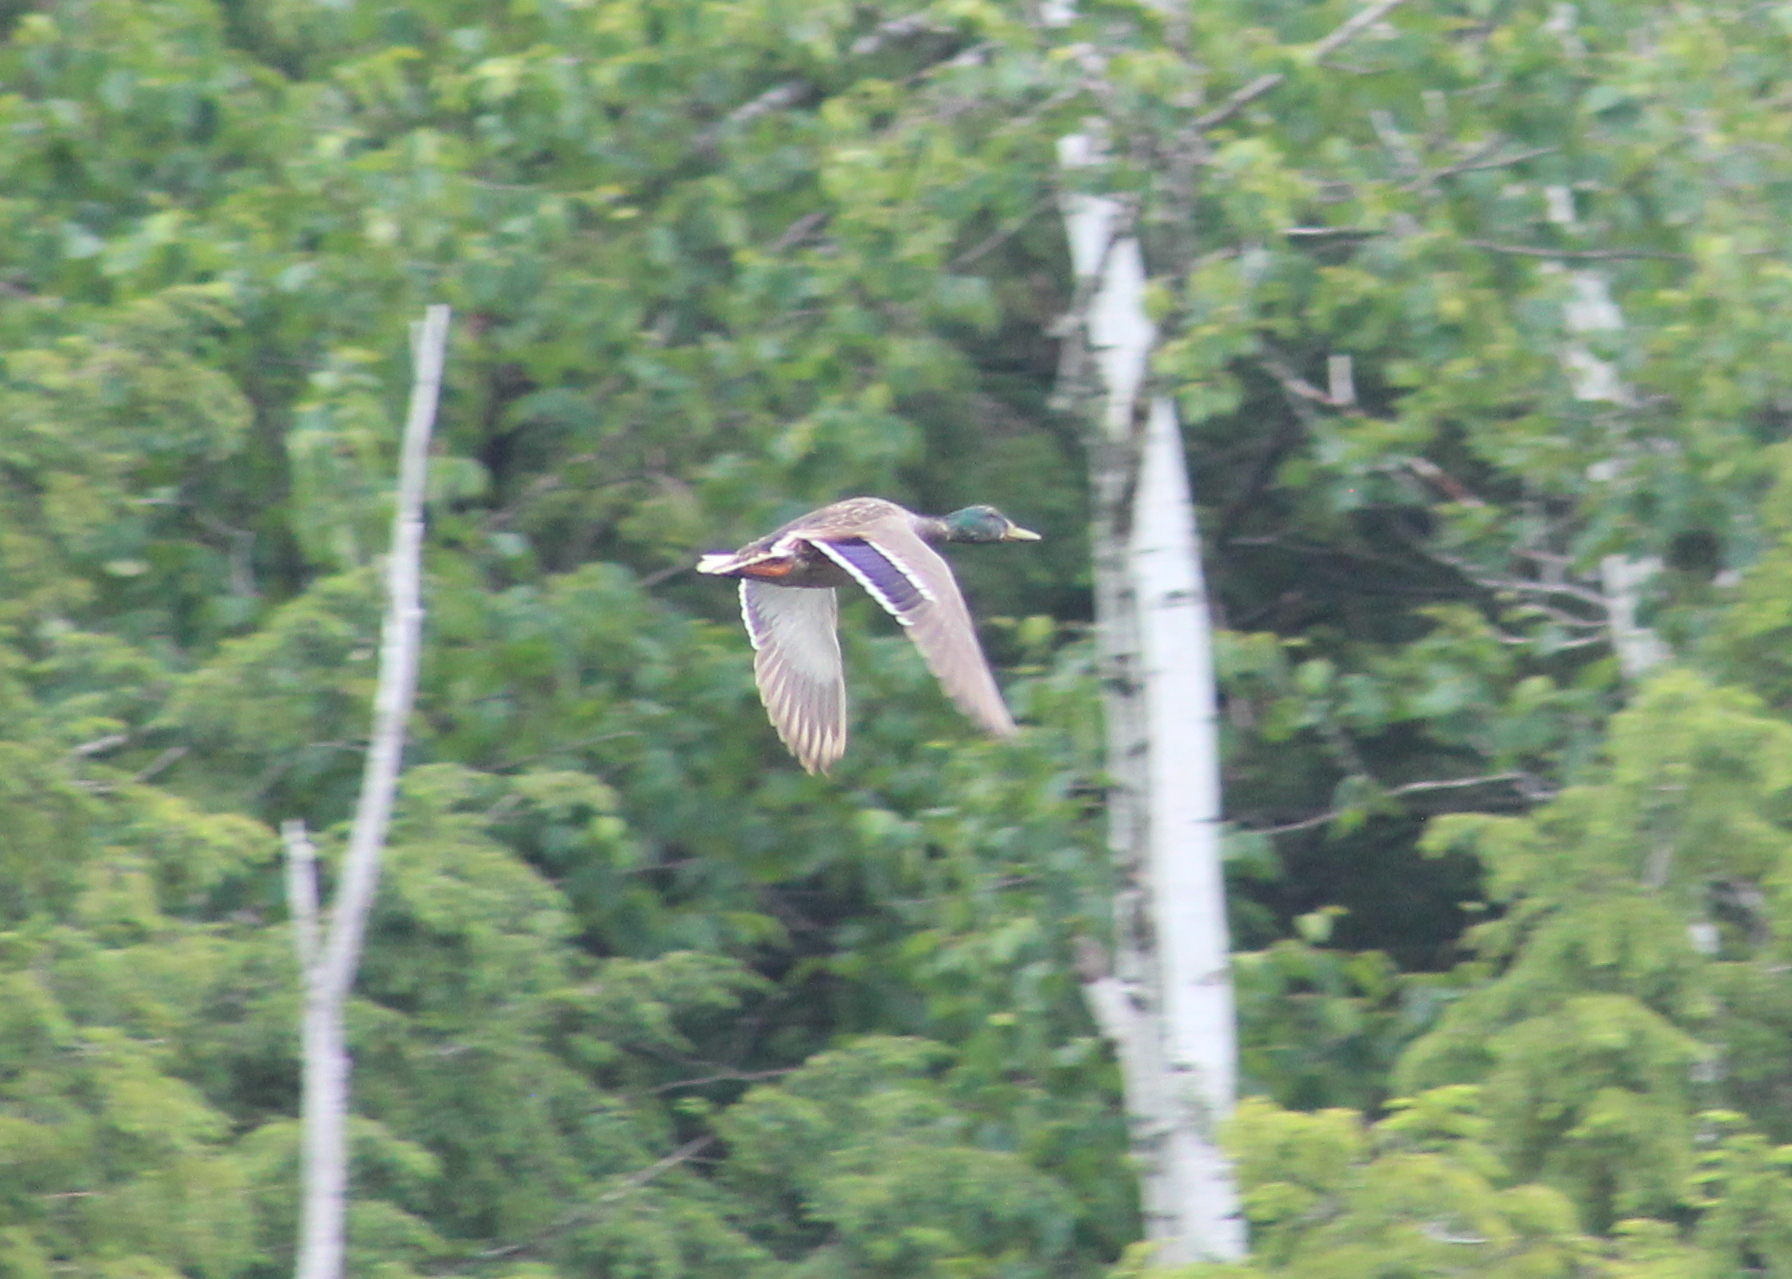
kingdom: Animalia
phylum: Chordata
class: Aves
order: Anseriformes
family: Anatidae
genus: Anas
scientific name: Anas platyrhynchos
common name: Mallard
